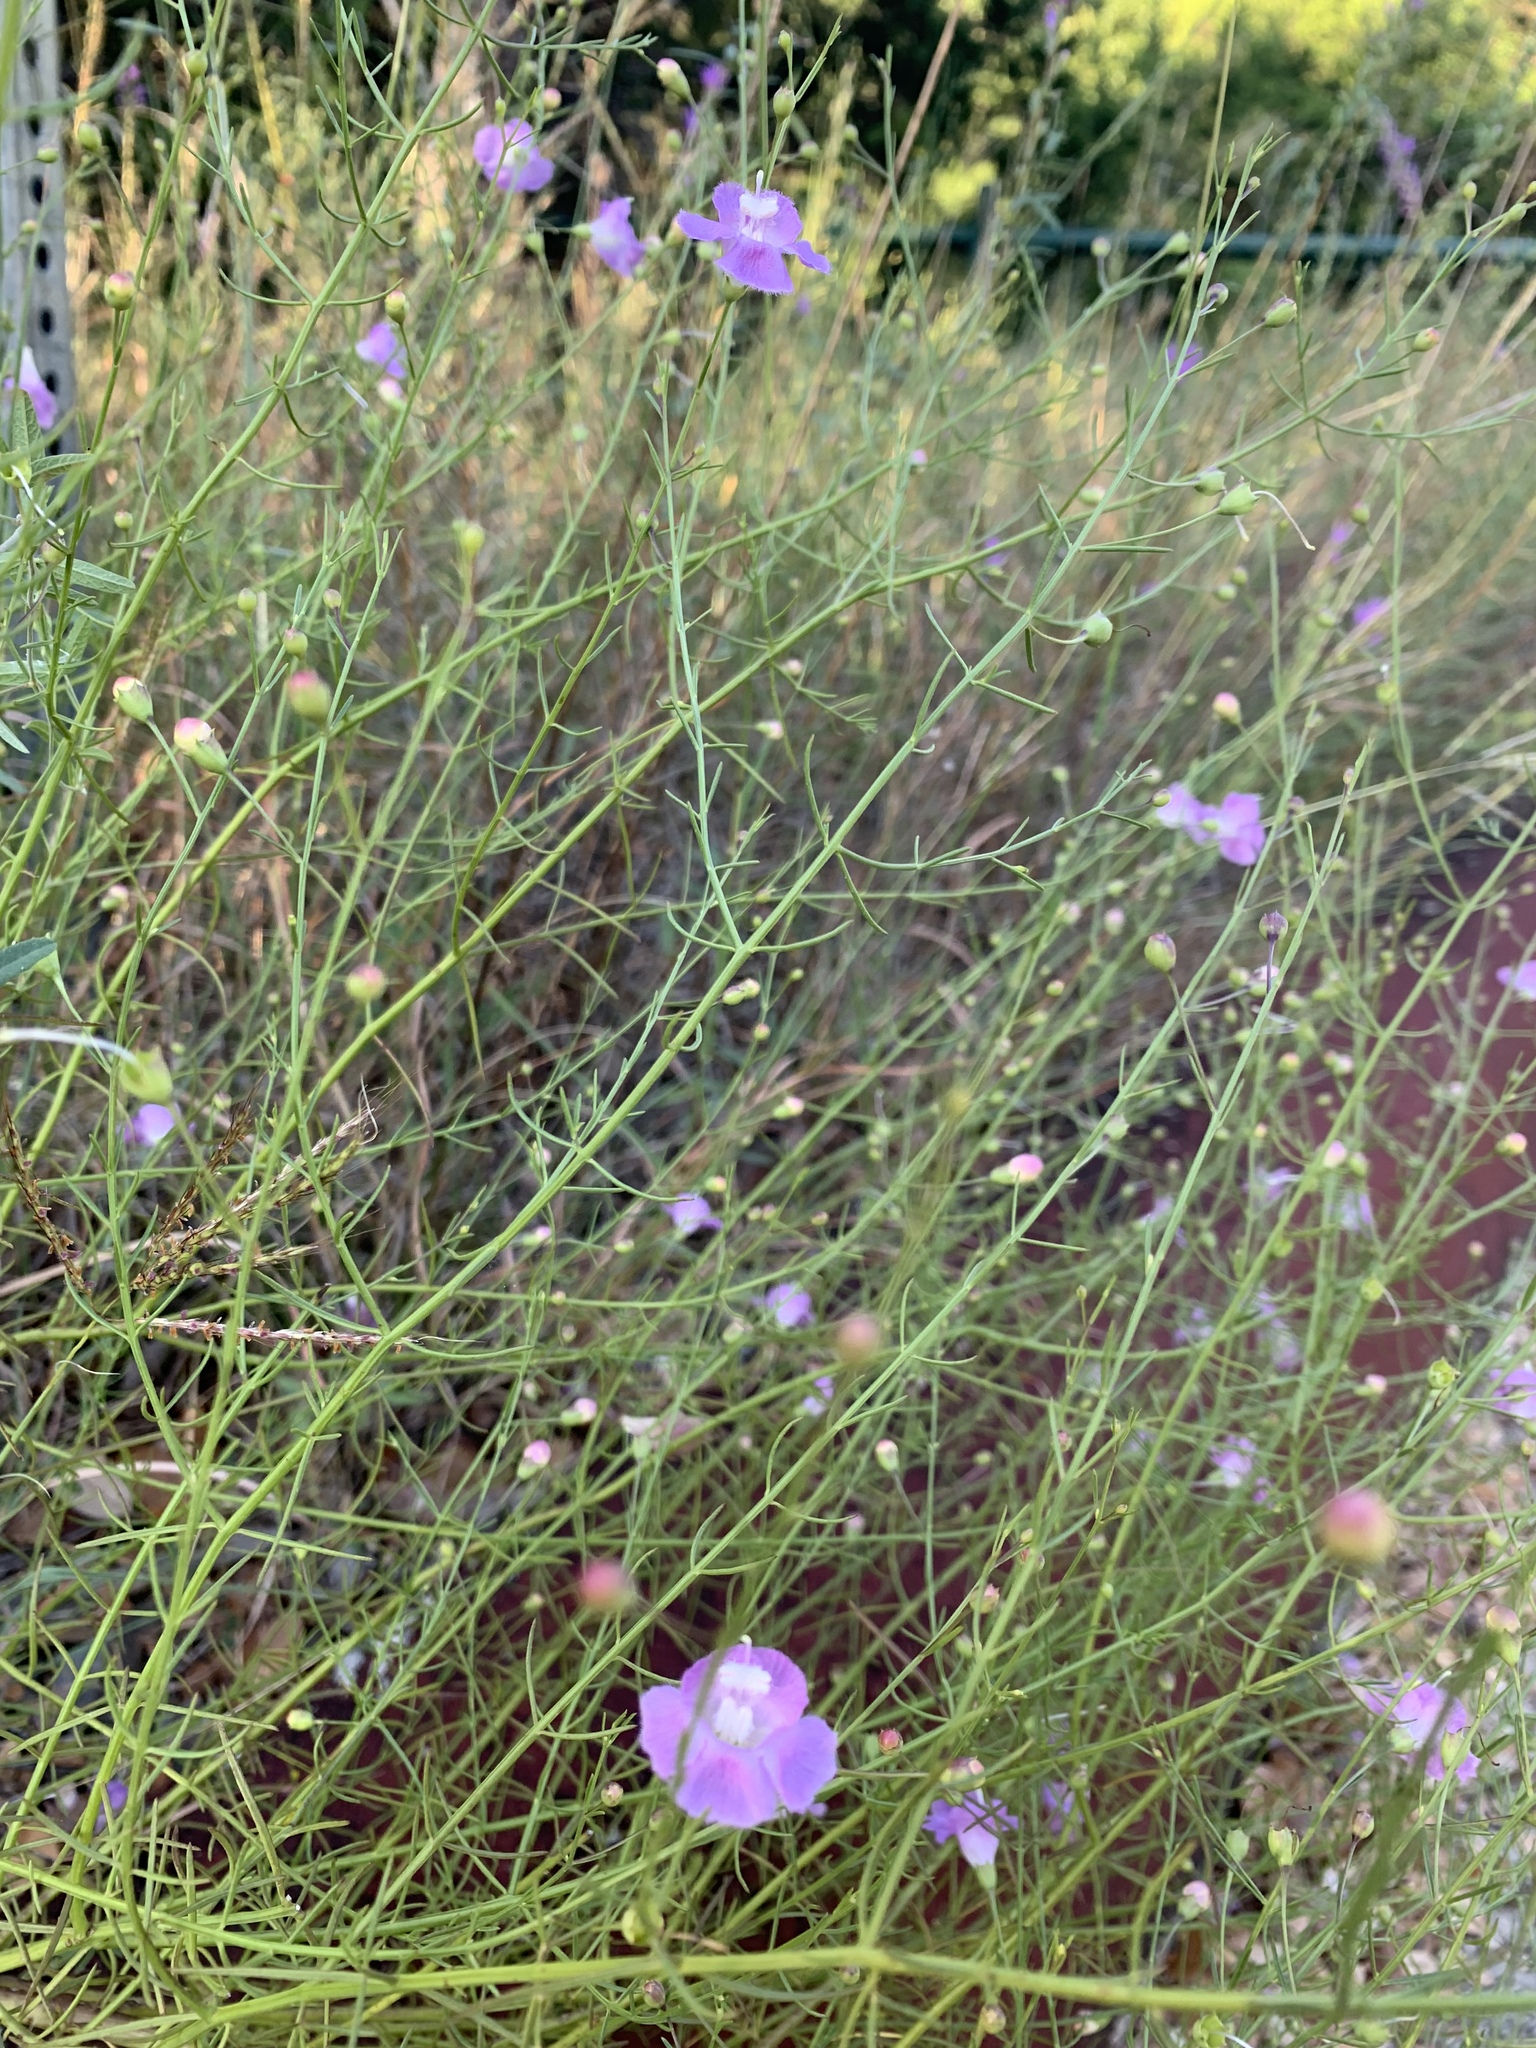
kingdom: Plantae
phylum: Tracheophyta
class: Magnoliopsida
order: Lamiales
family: Orobanchaceae
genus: Agalinis
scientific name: Agalinis edwardsiana
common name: Plateau-gerardia
